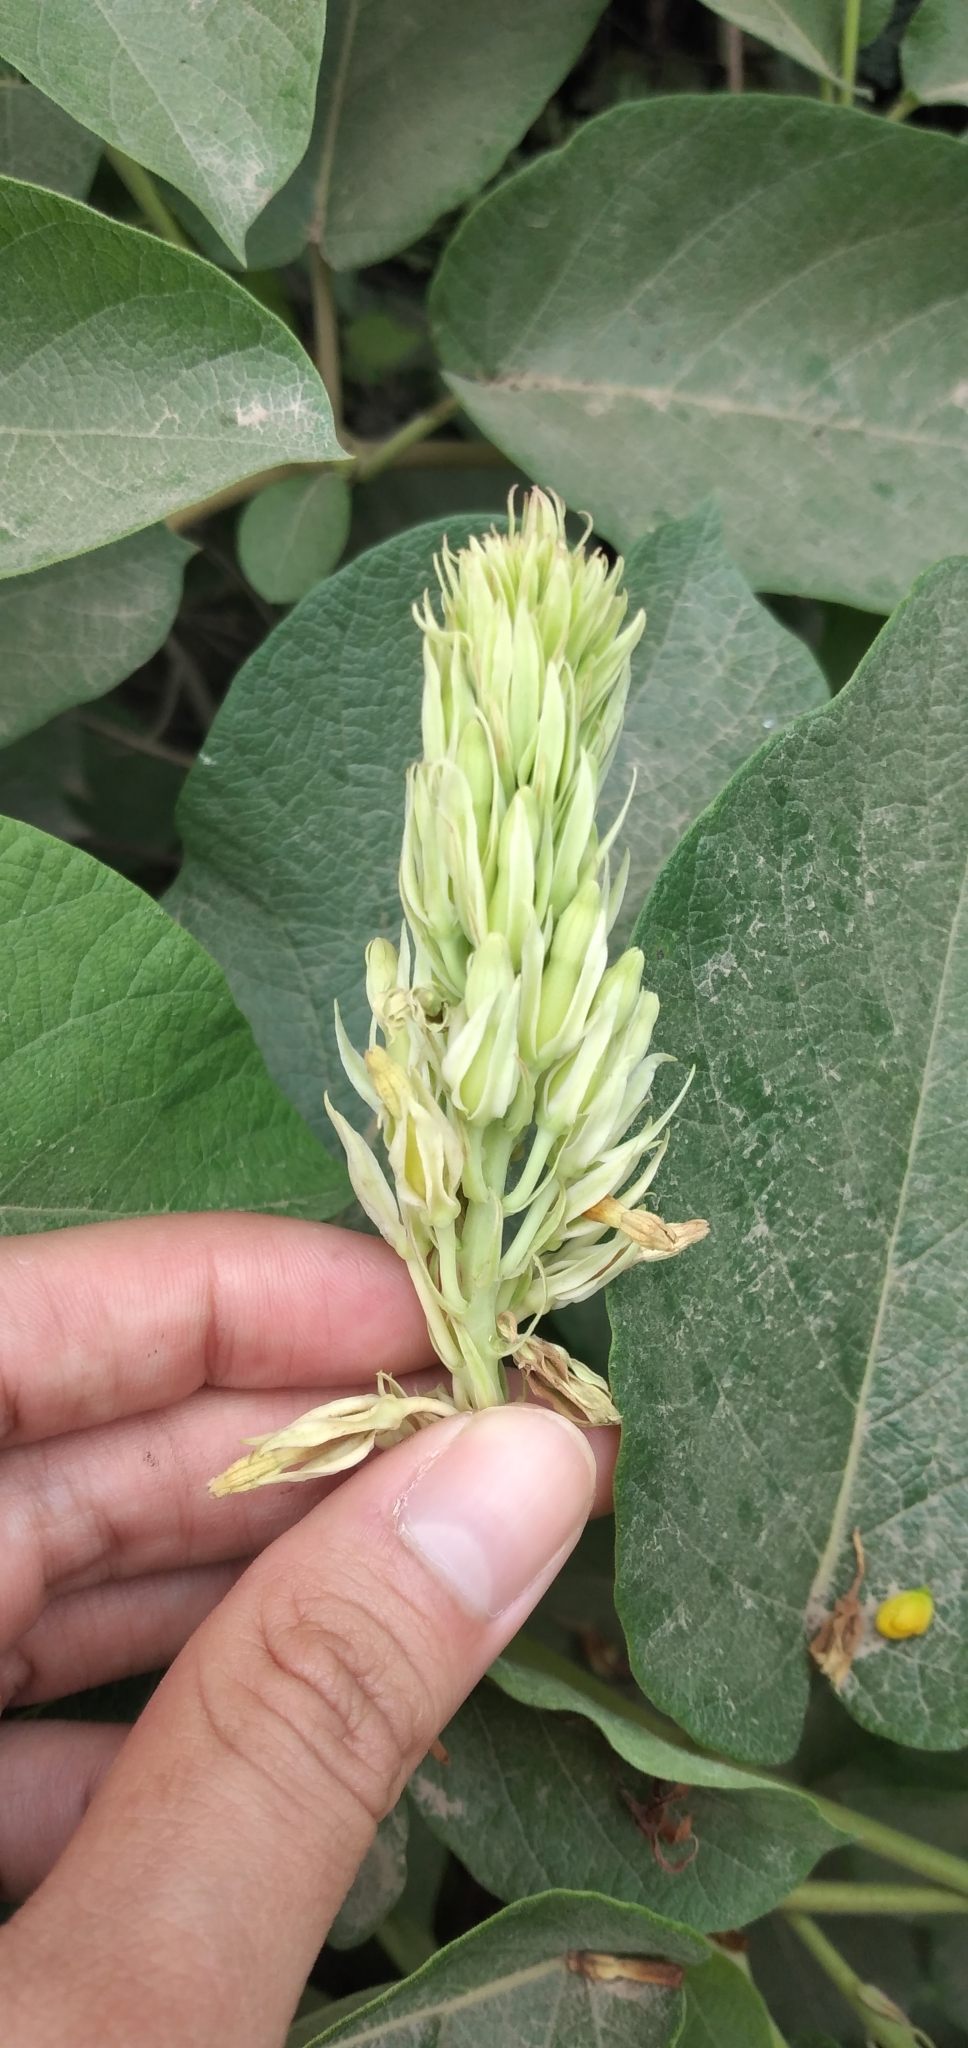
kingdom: Plantae
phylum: Tracheophyta
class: Magnoliopsida
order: Gentianales
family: Apocynaceae
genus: Mandevilla
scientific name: Mandevilla pentlandiana
